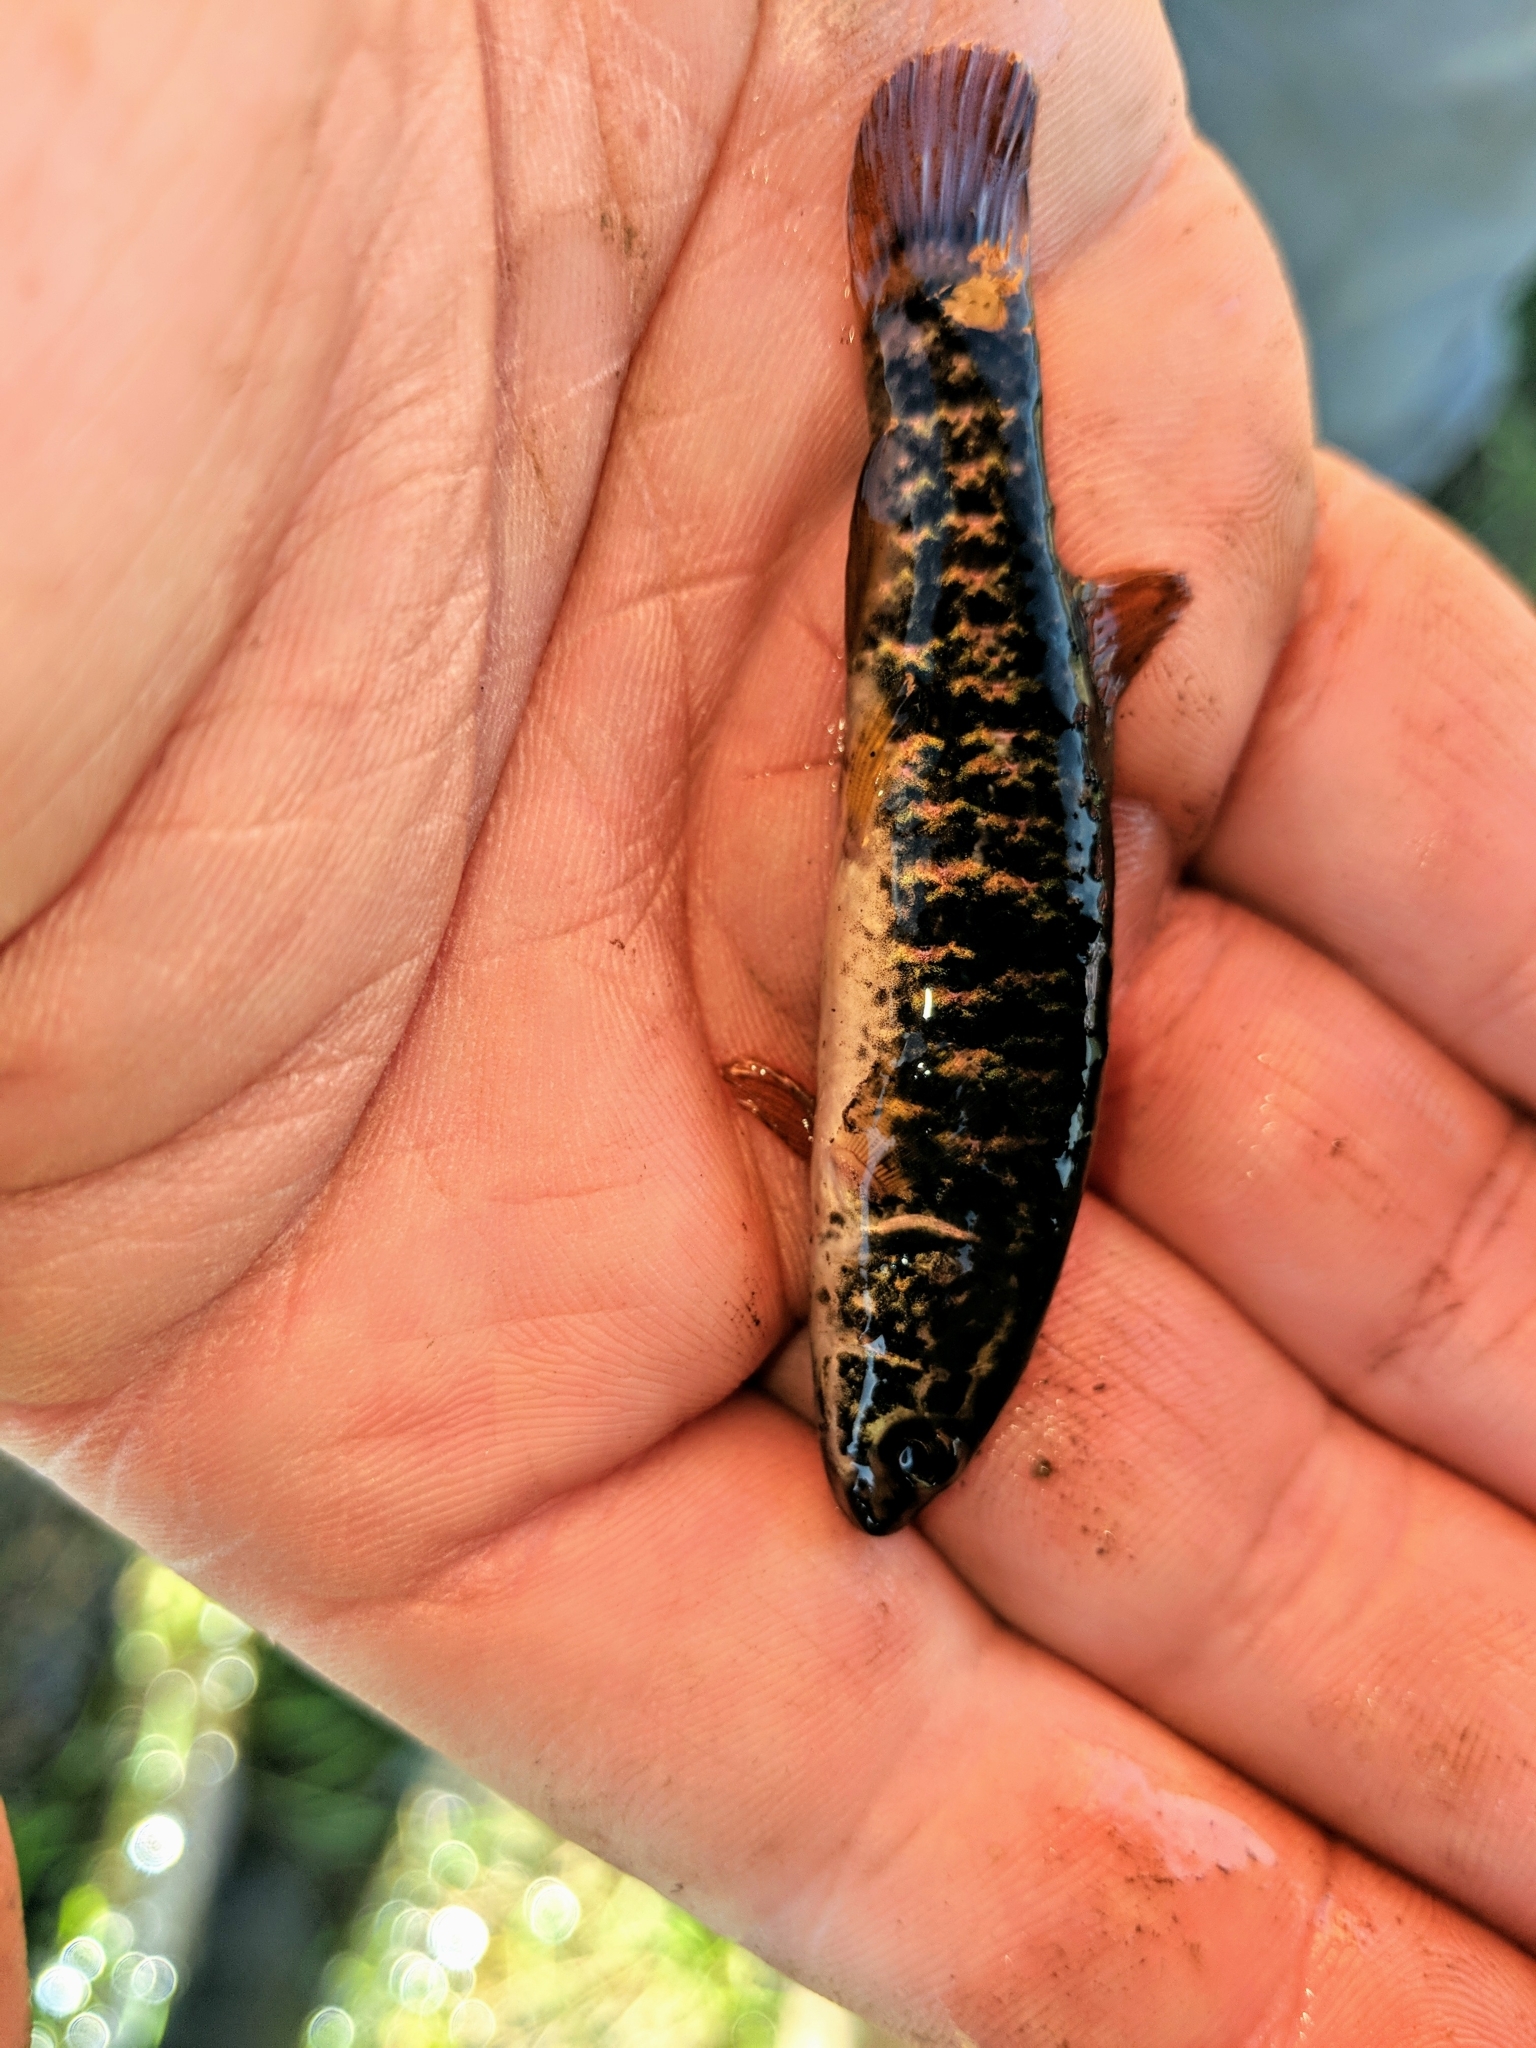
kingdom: Animalia
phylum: Chordata
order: Esociformes
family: Umbridae
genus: Umbra
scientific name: Umbra limi
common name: Central mudminnow
